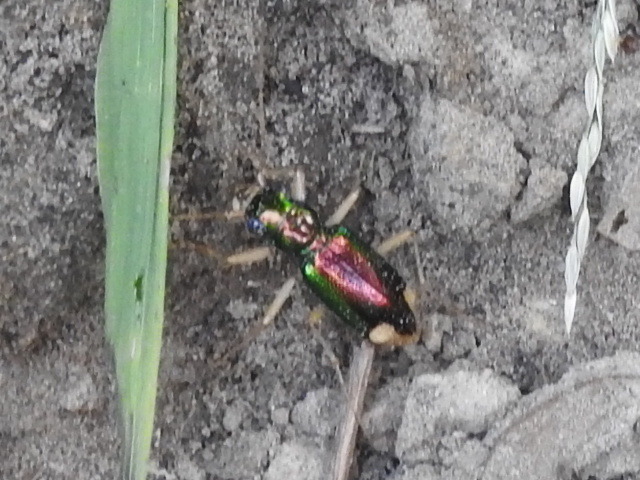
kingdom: Animalia
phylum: Arthropoda
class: Insecta
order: Coleoptera
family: Carabidae
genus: Tetracha
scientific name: Tetracha carolina
